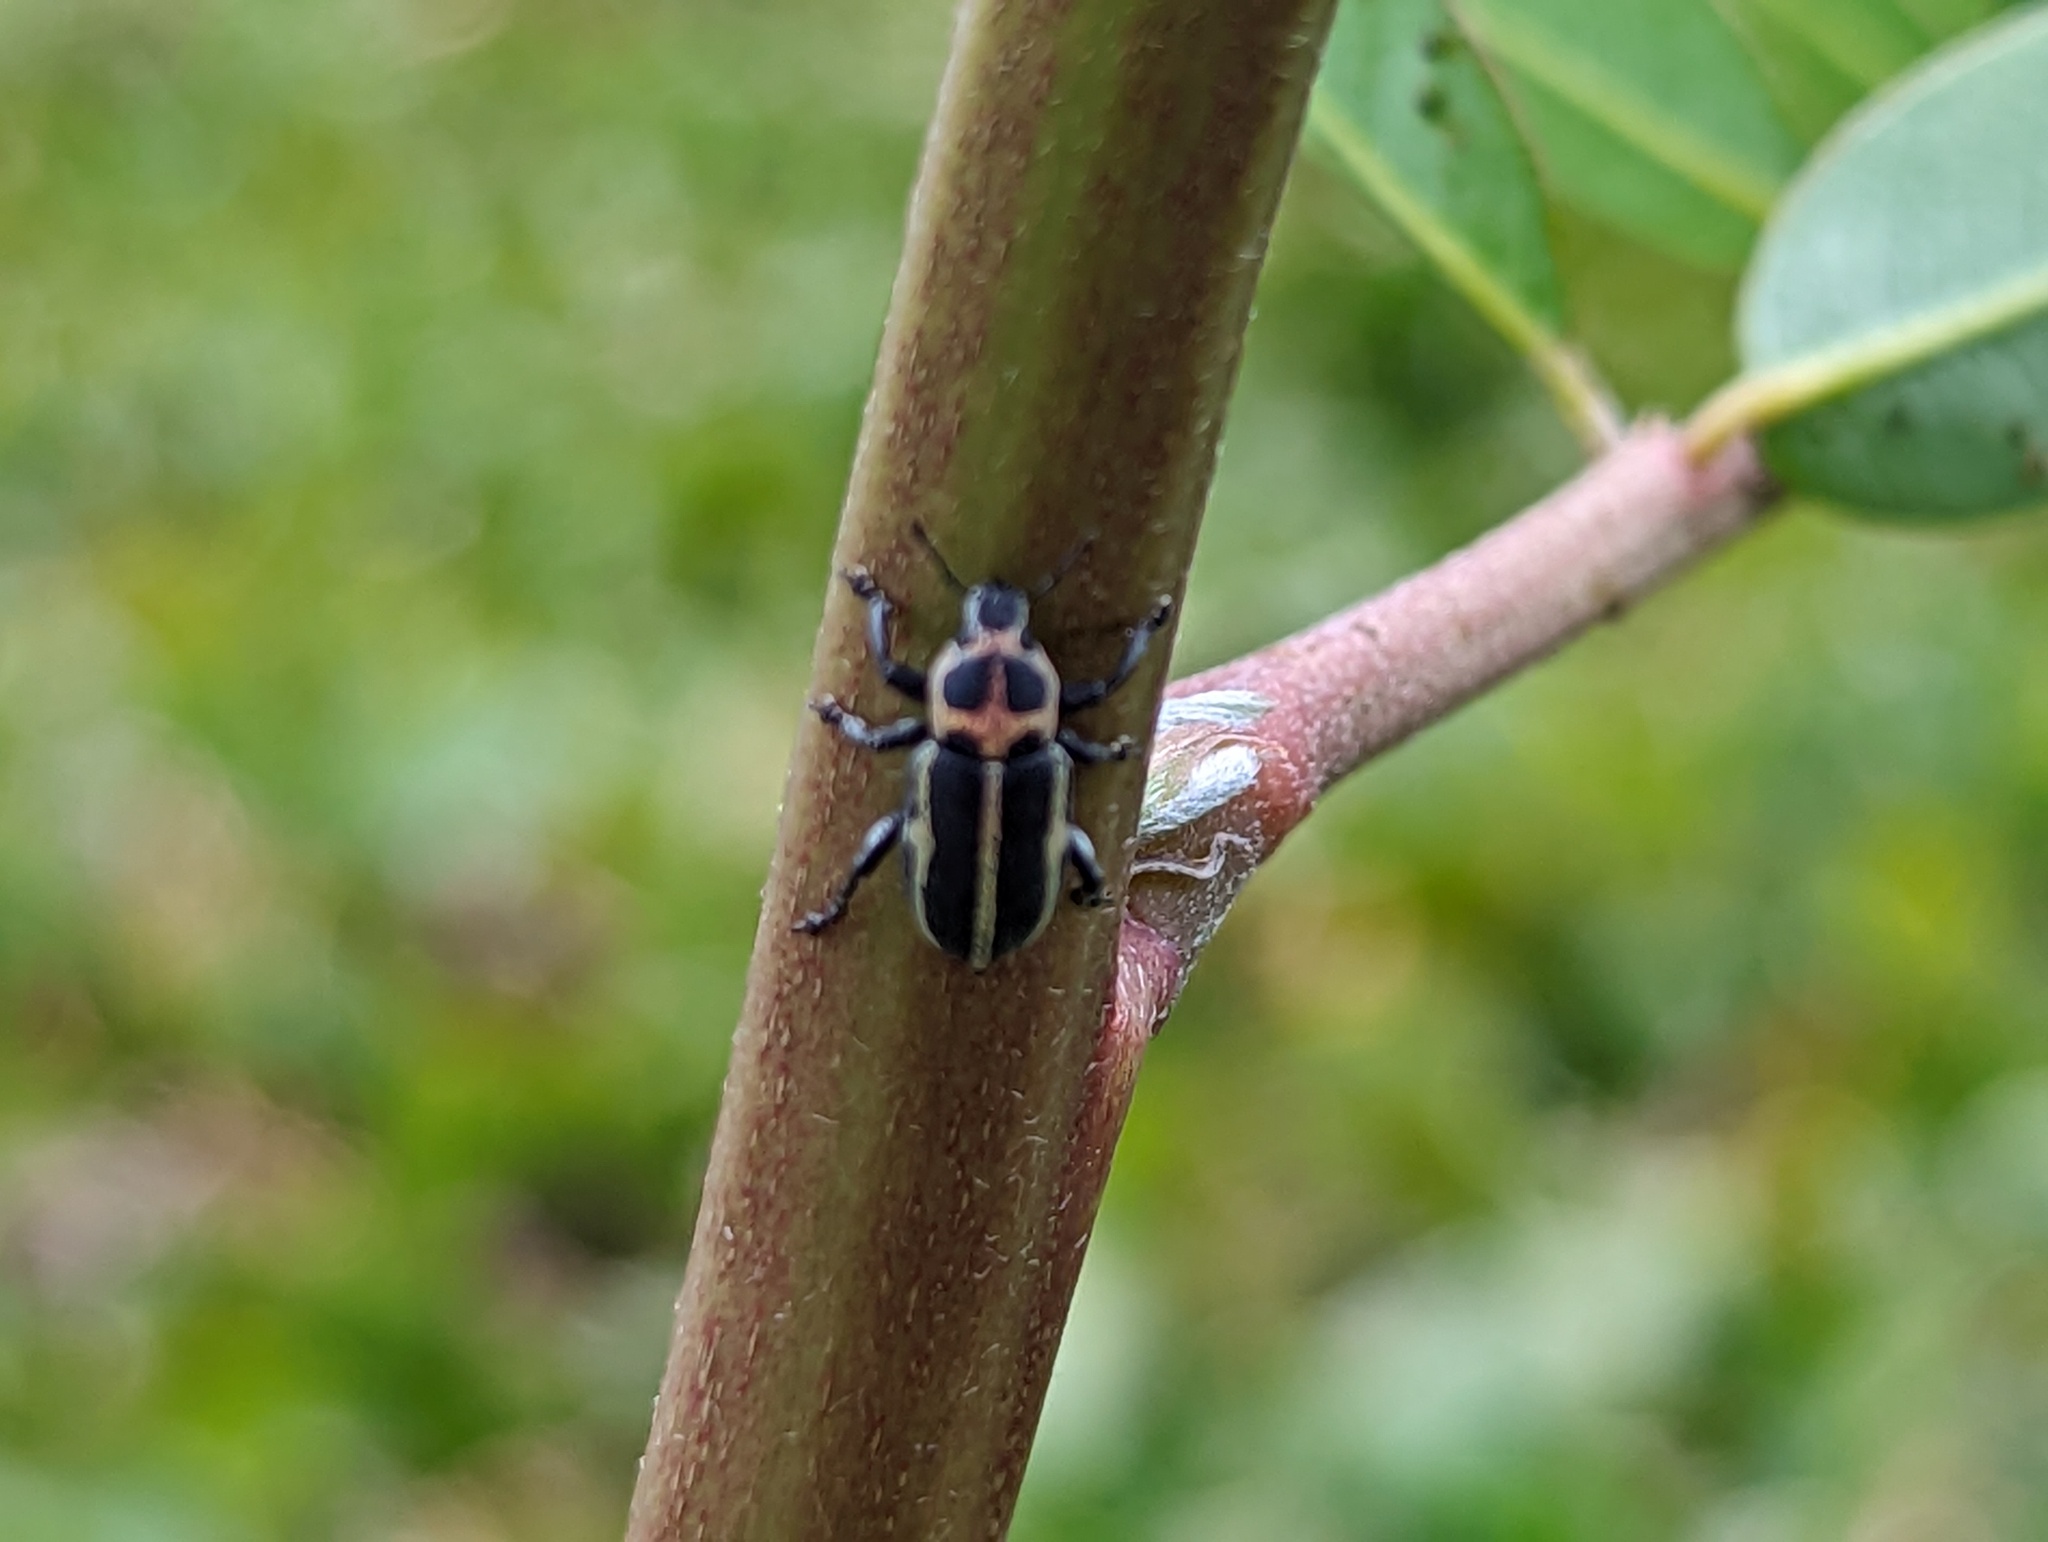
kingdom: Animalia
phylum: Arthropoda
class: Insecta
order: Coleoptera
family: Curculionidae
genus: Eudiagogus
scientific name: Eudiagogus pulcher
